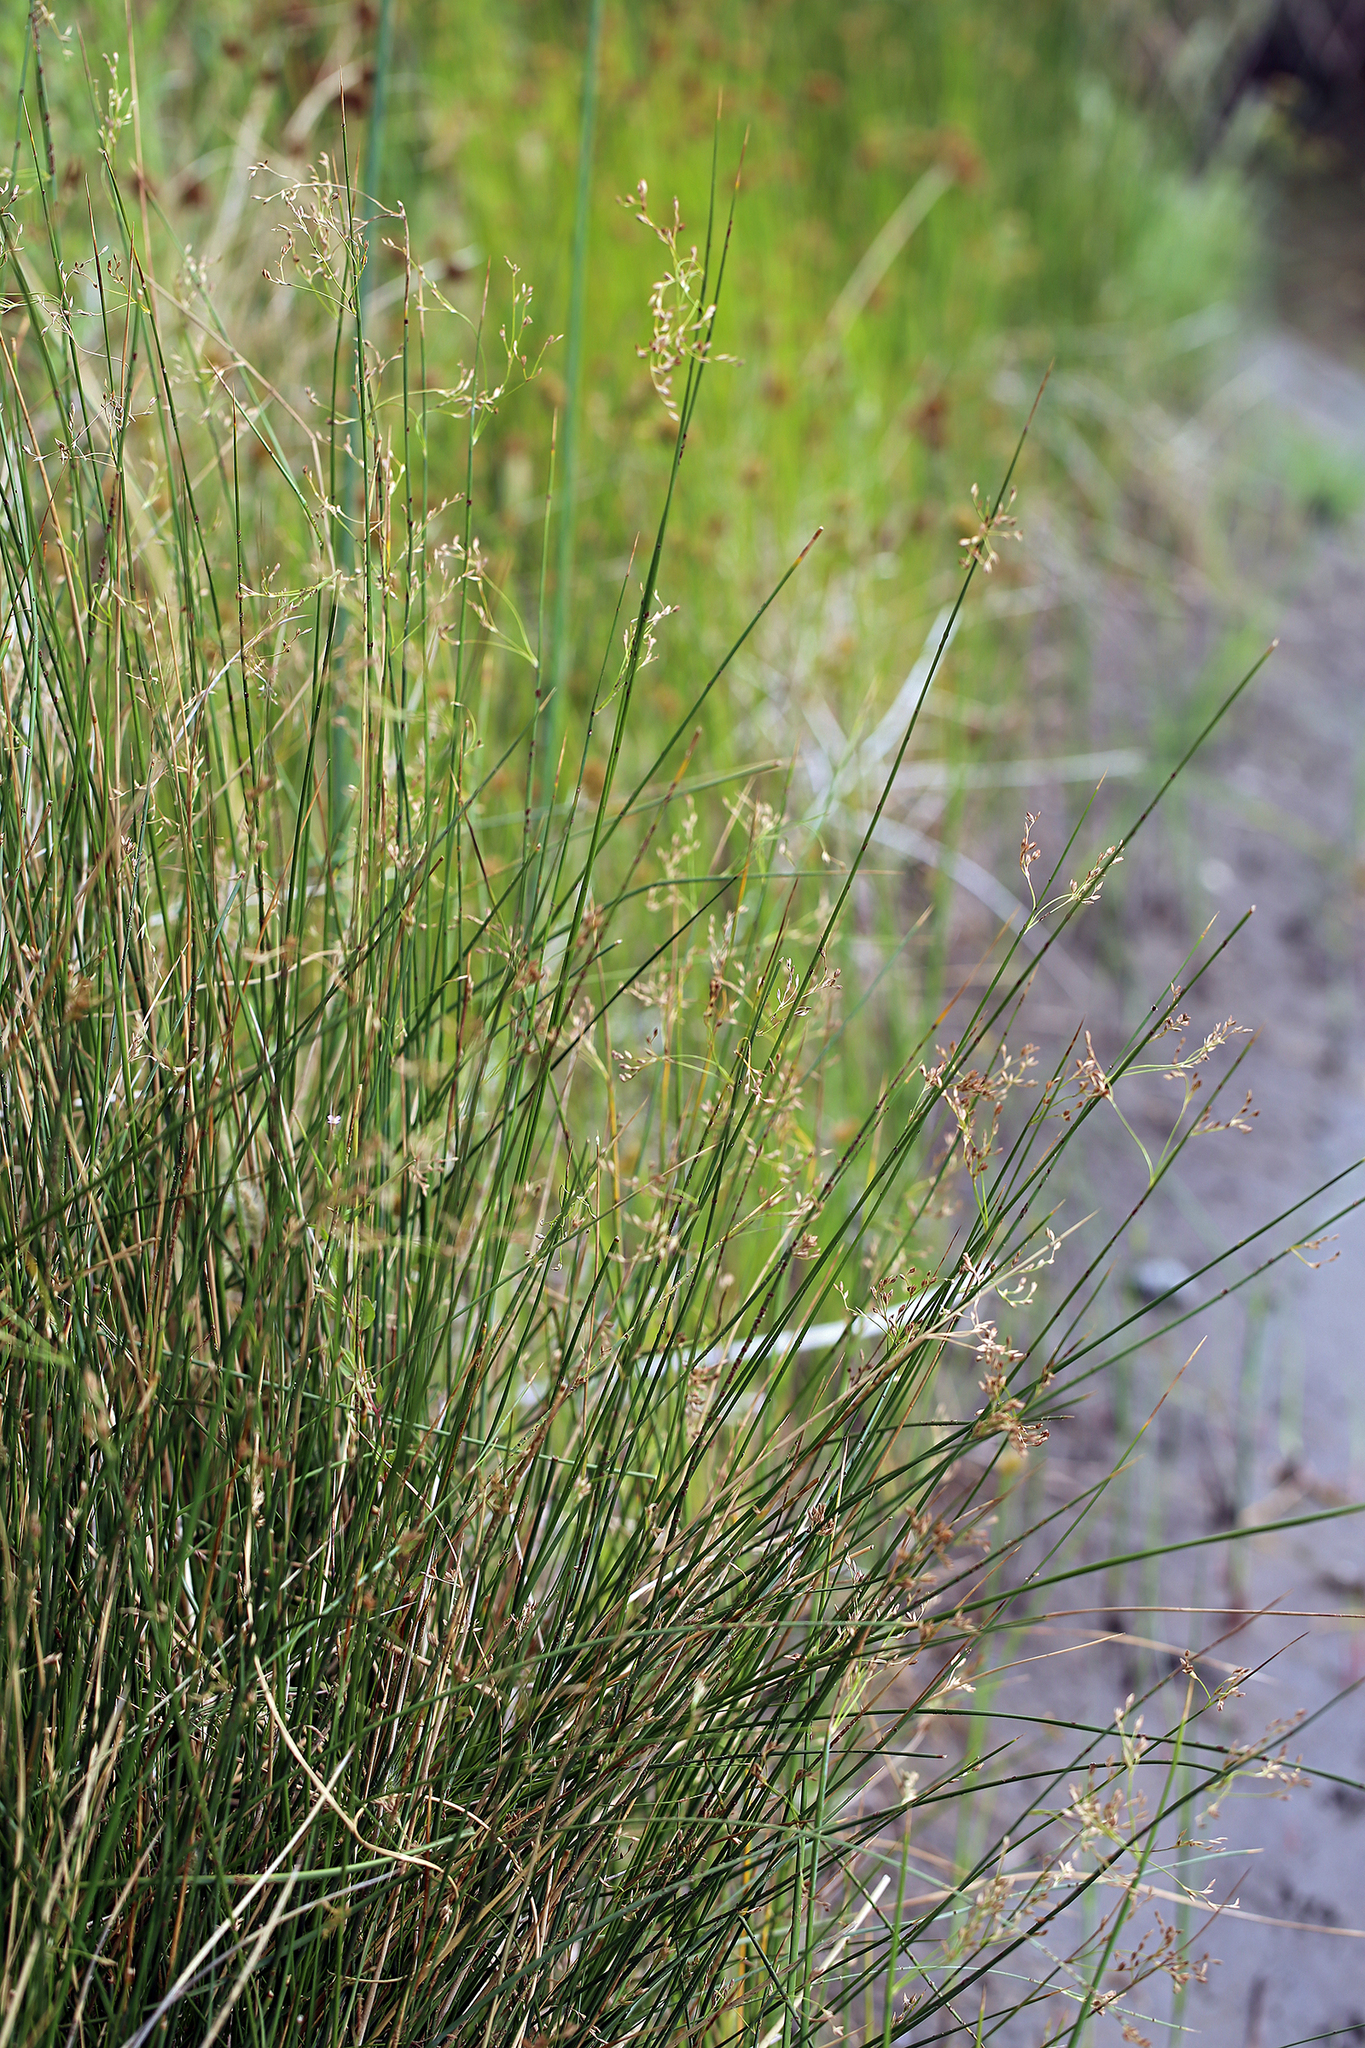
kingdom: Plantae
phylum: Tracheophyta
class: Liliopsida
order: Poales
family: Juncaceae
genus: Juncus
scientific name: Juncus balticus
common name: Baltic rush
